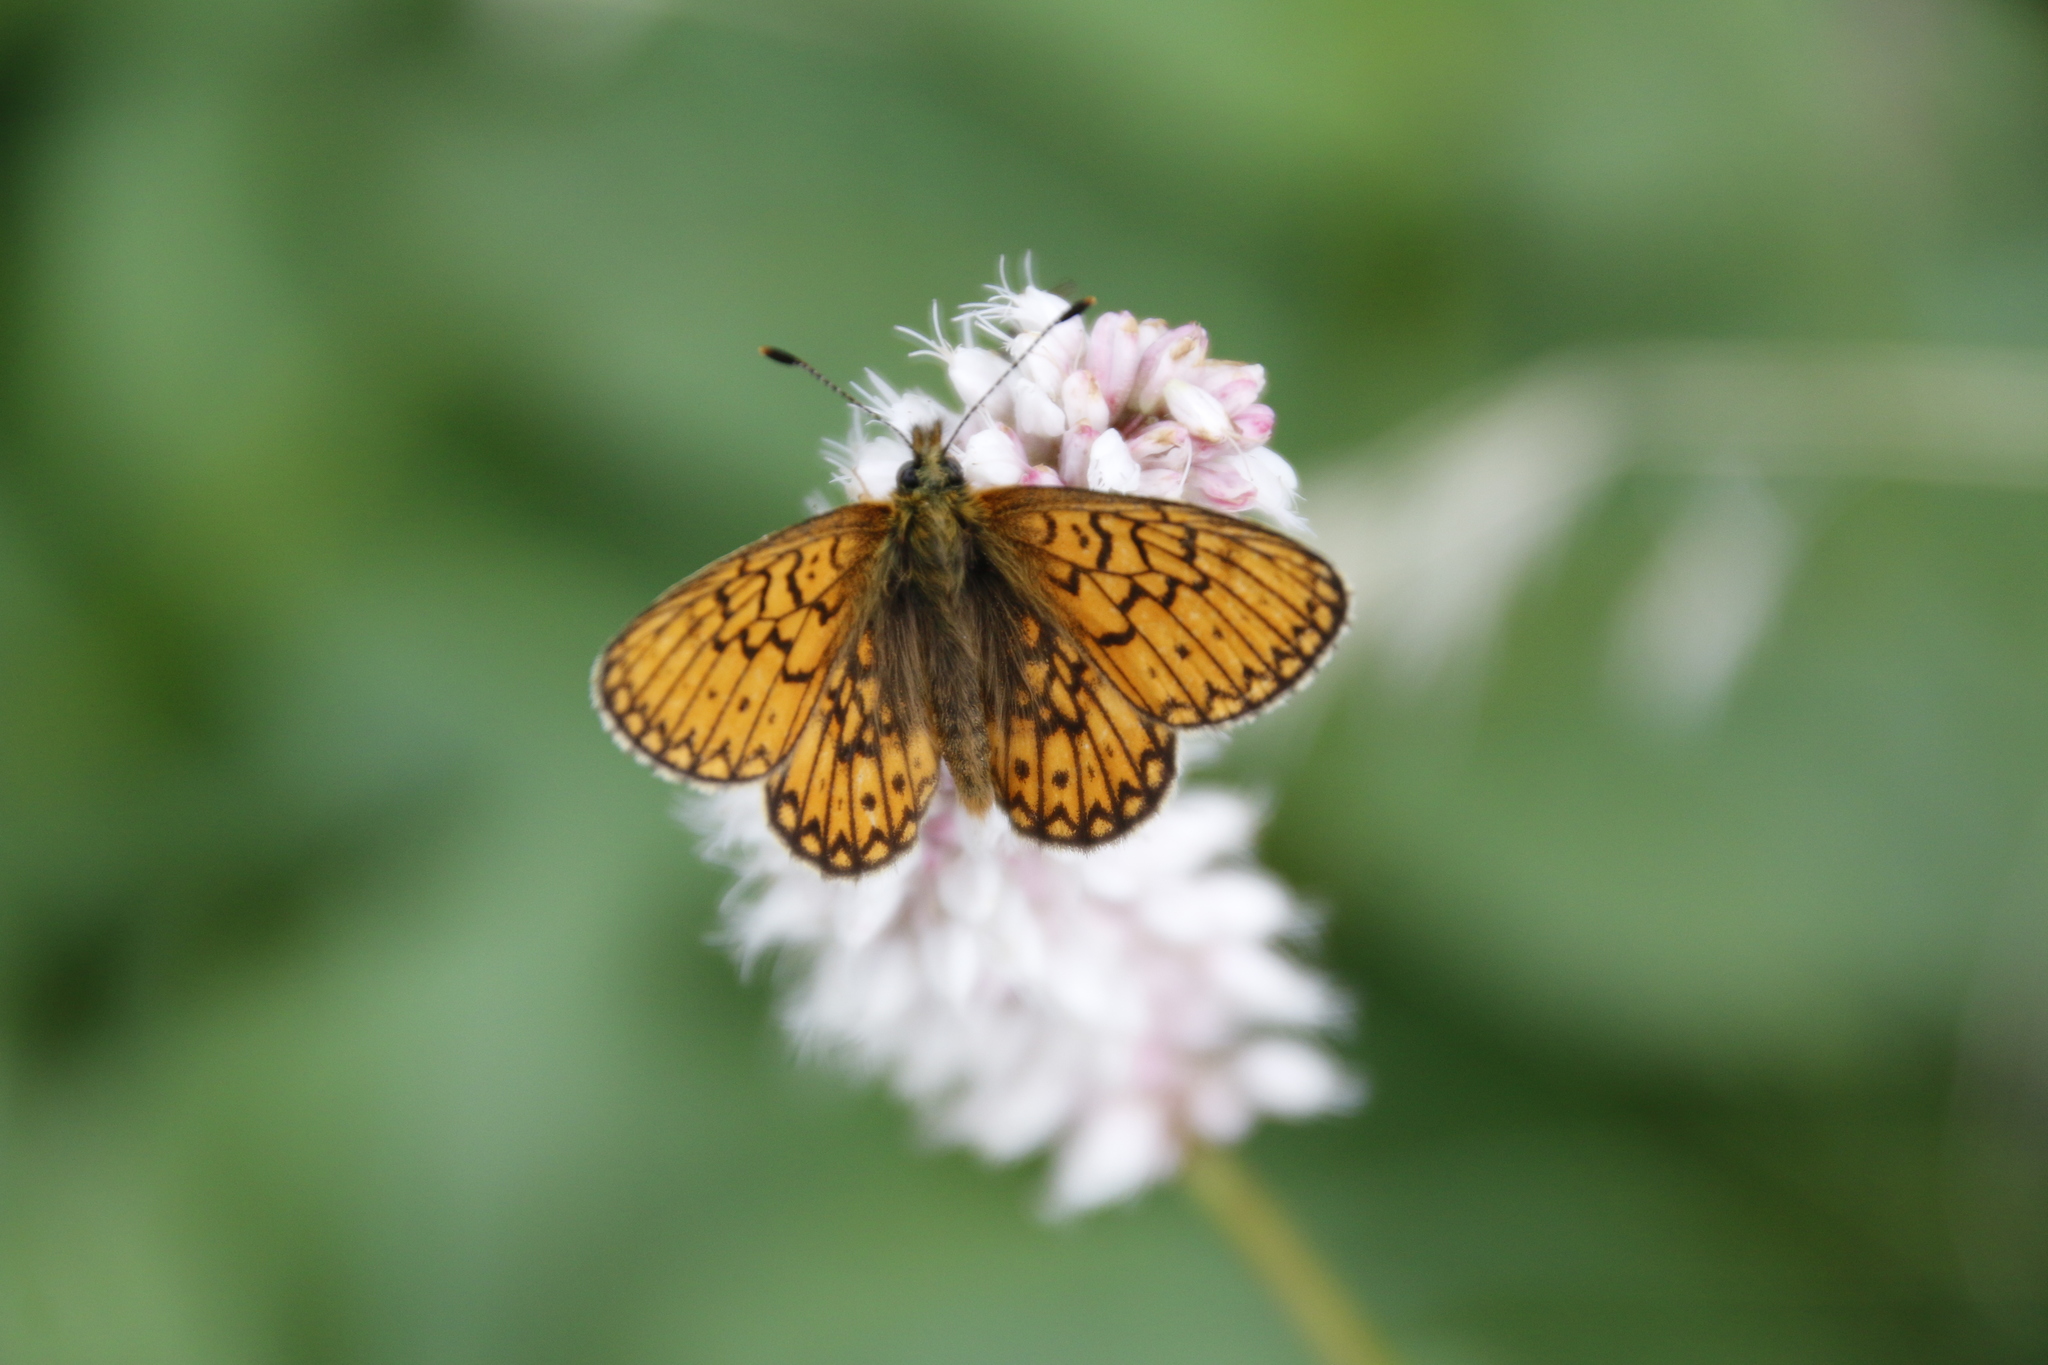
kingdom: Animalia
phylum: Arthropoda
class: Insecta
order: Lepidoptera
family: Nymphalidae
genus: Boloria
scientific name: Boloria eunomia
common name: Bog fritillary
